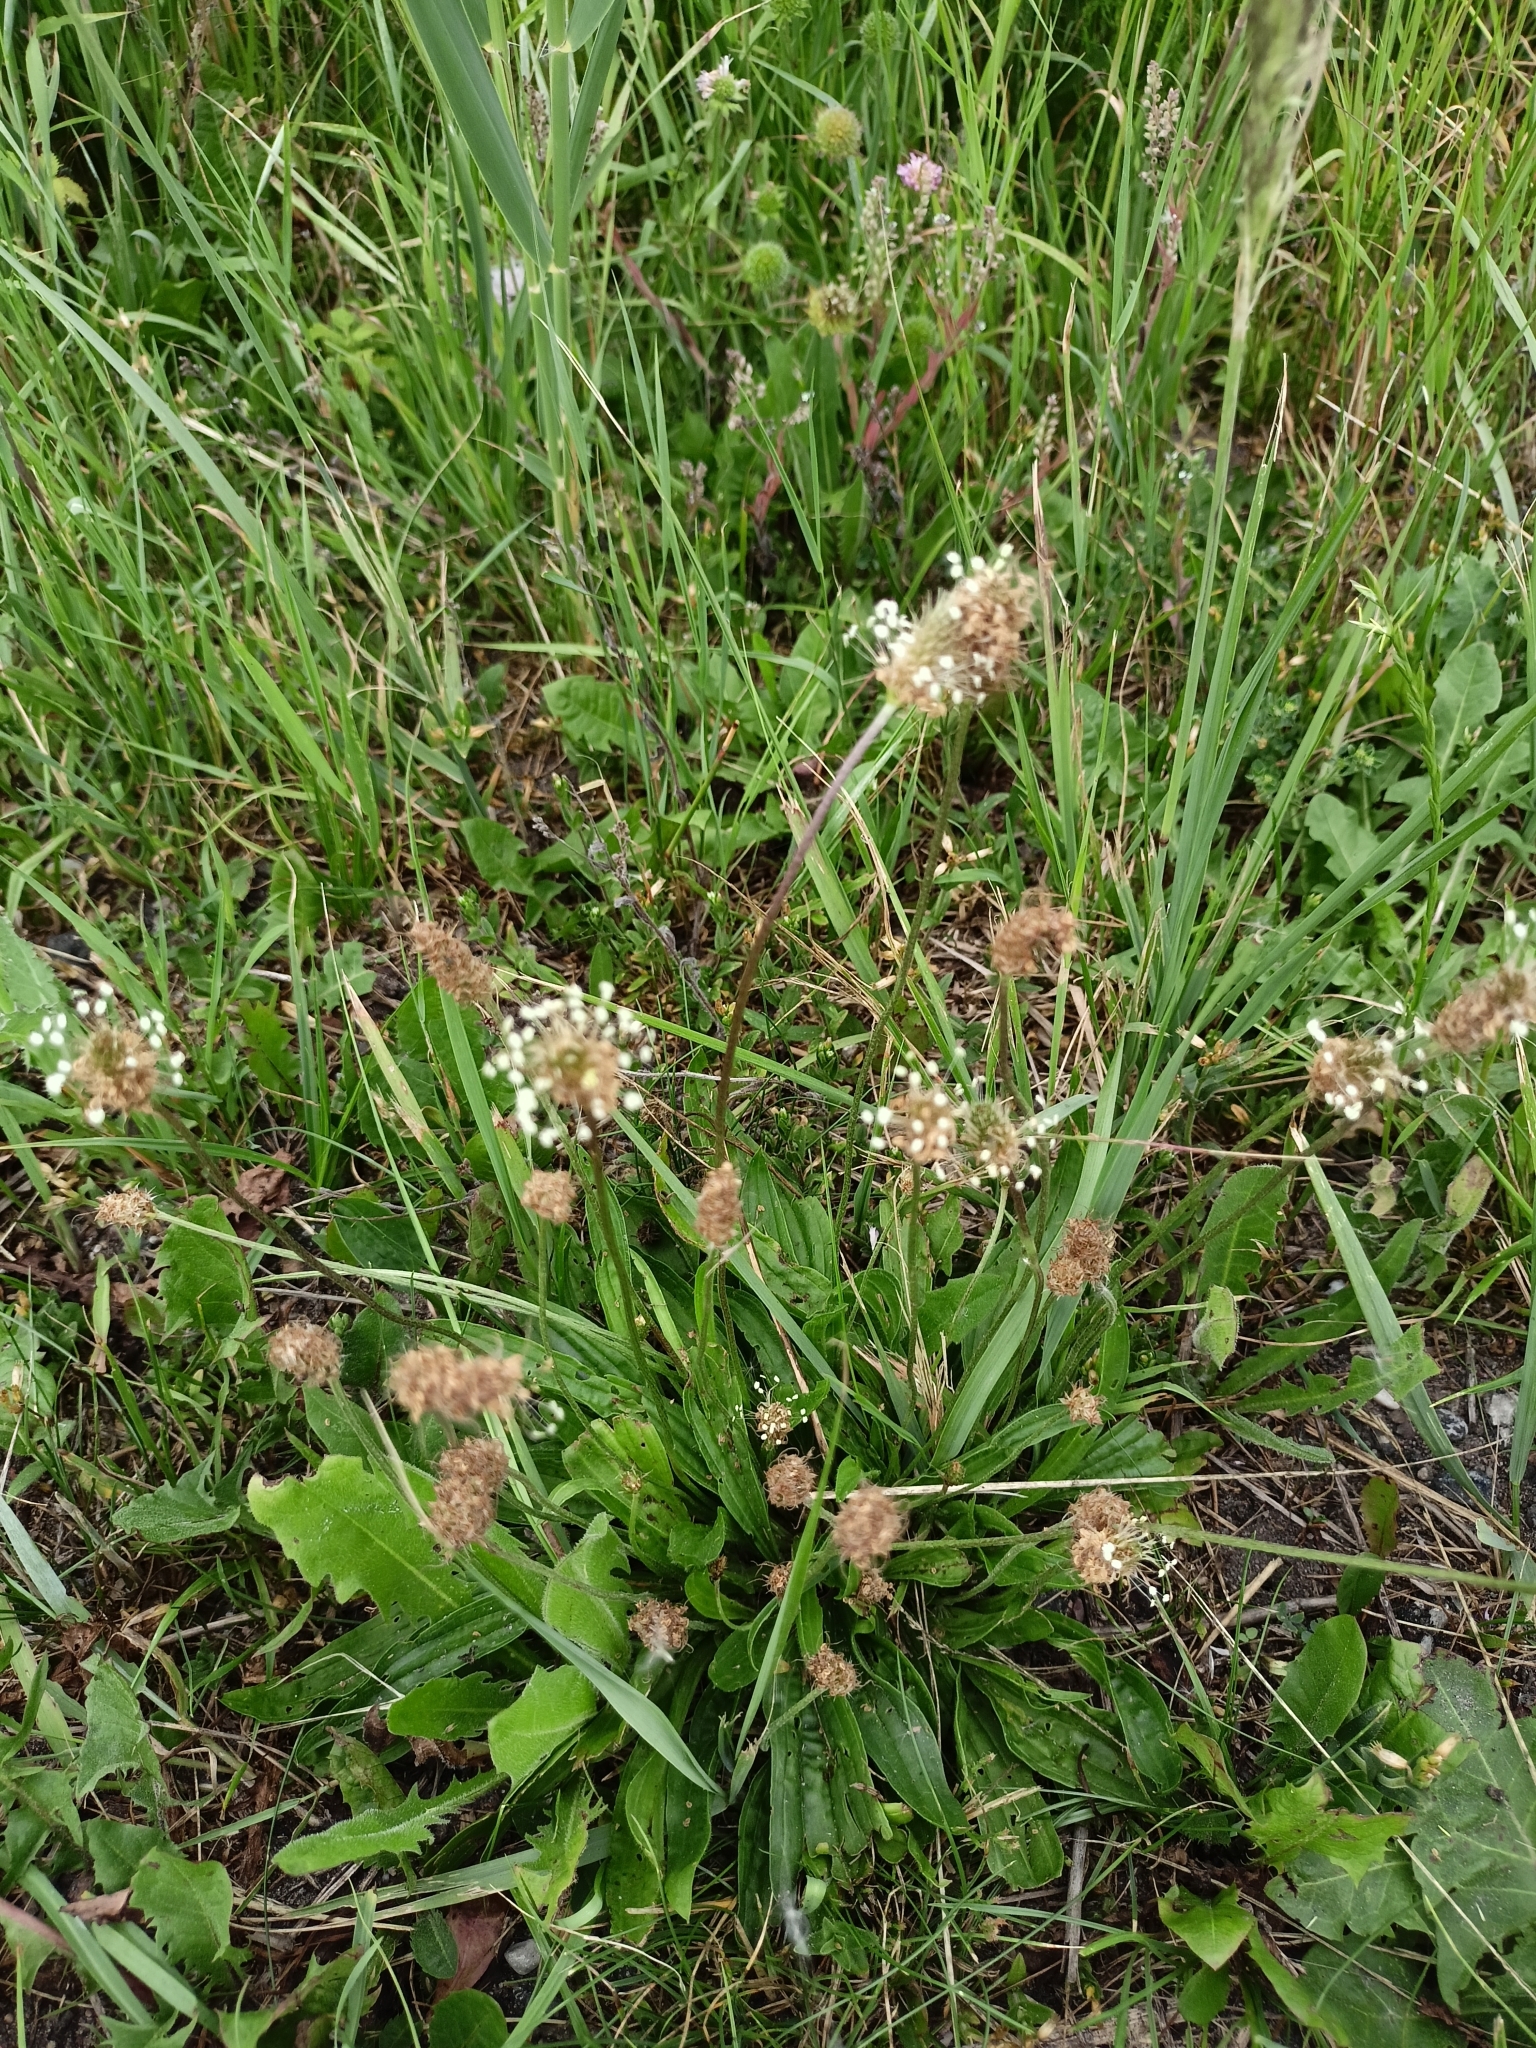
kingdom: Plantae
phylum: Tracheophyta
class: Magnoliopsida
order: Lamiales
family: Plantaginaceae
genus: Plantago
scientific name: Plantago lanceolata
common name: Ribwort plantain
